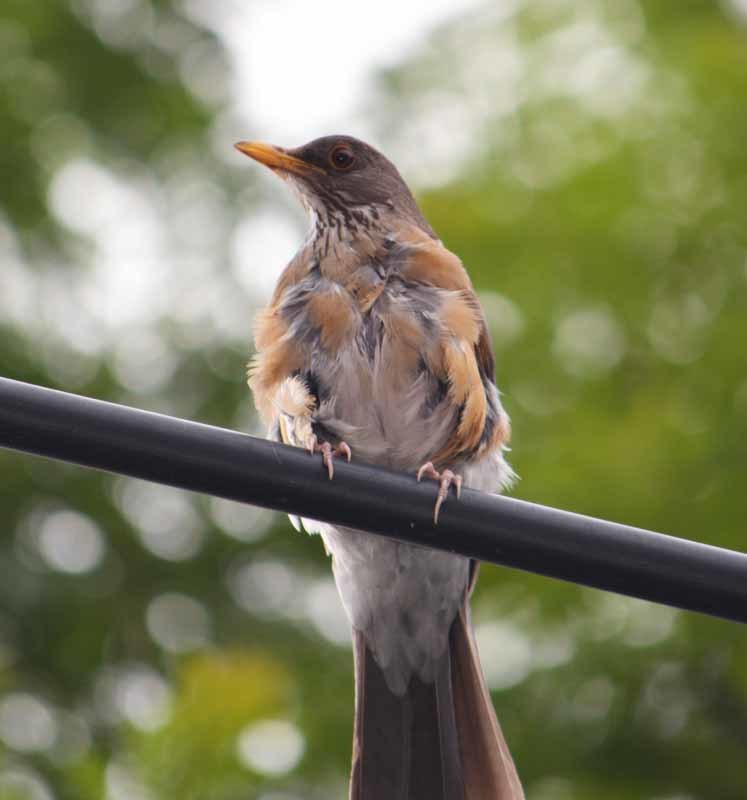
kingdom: Animalia
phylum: Chordata
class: Aves
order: Passeriformes
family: Turdidae
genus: Turdus
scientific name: Turdus rufopalliatus
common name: Rufous-backed robin
